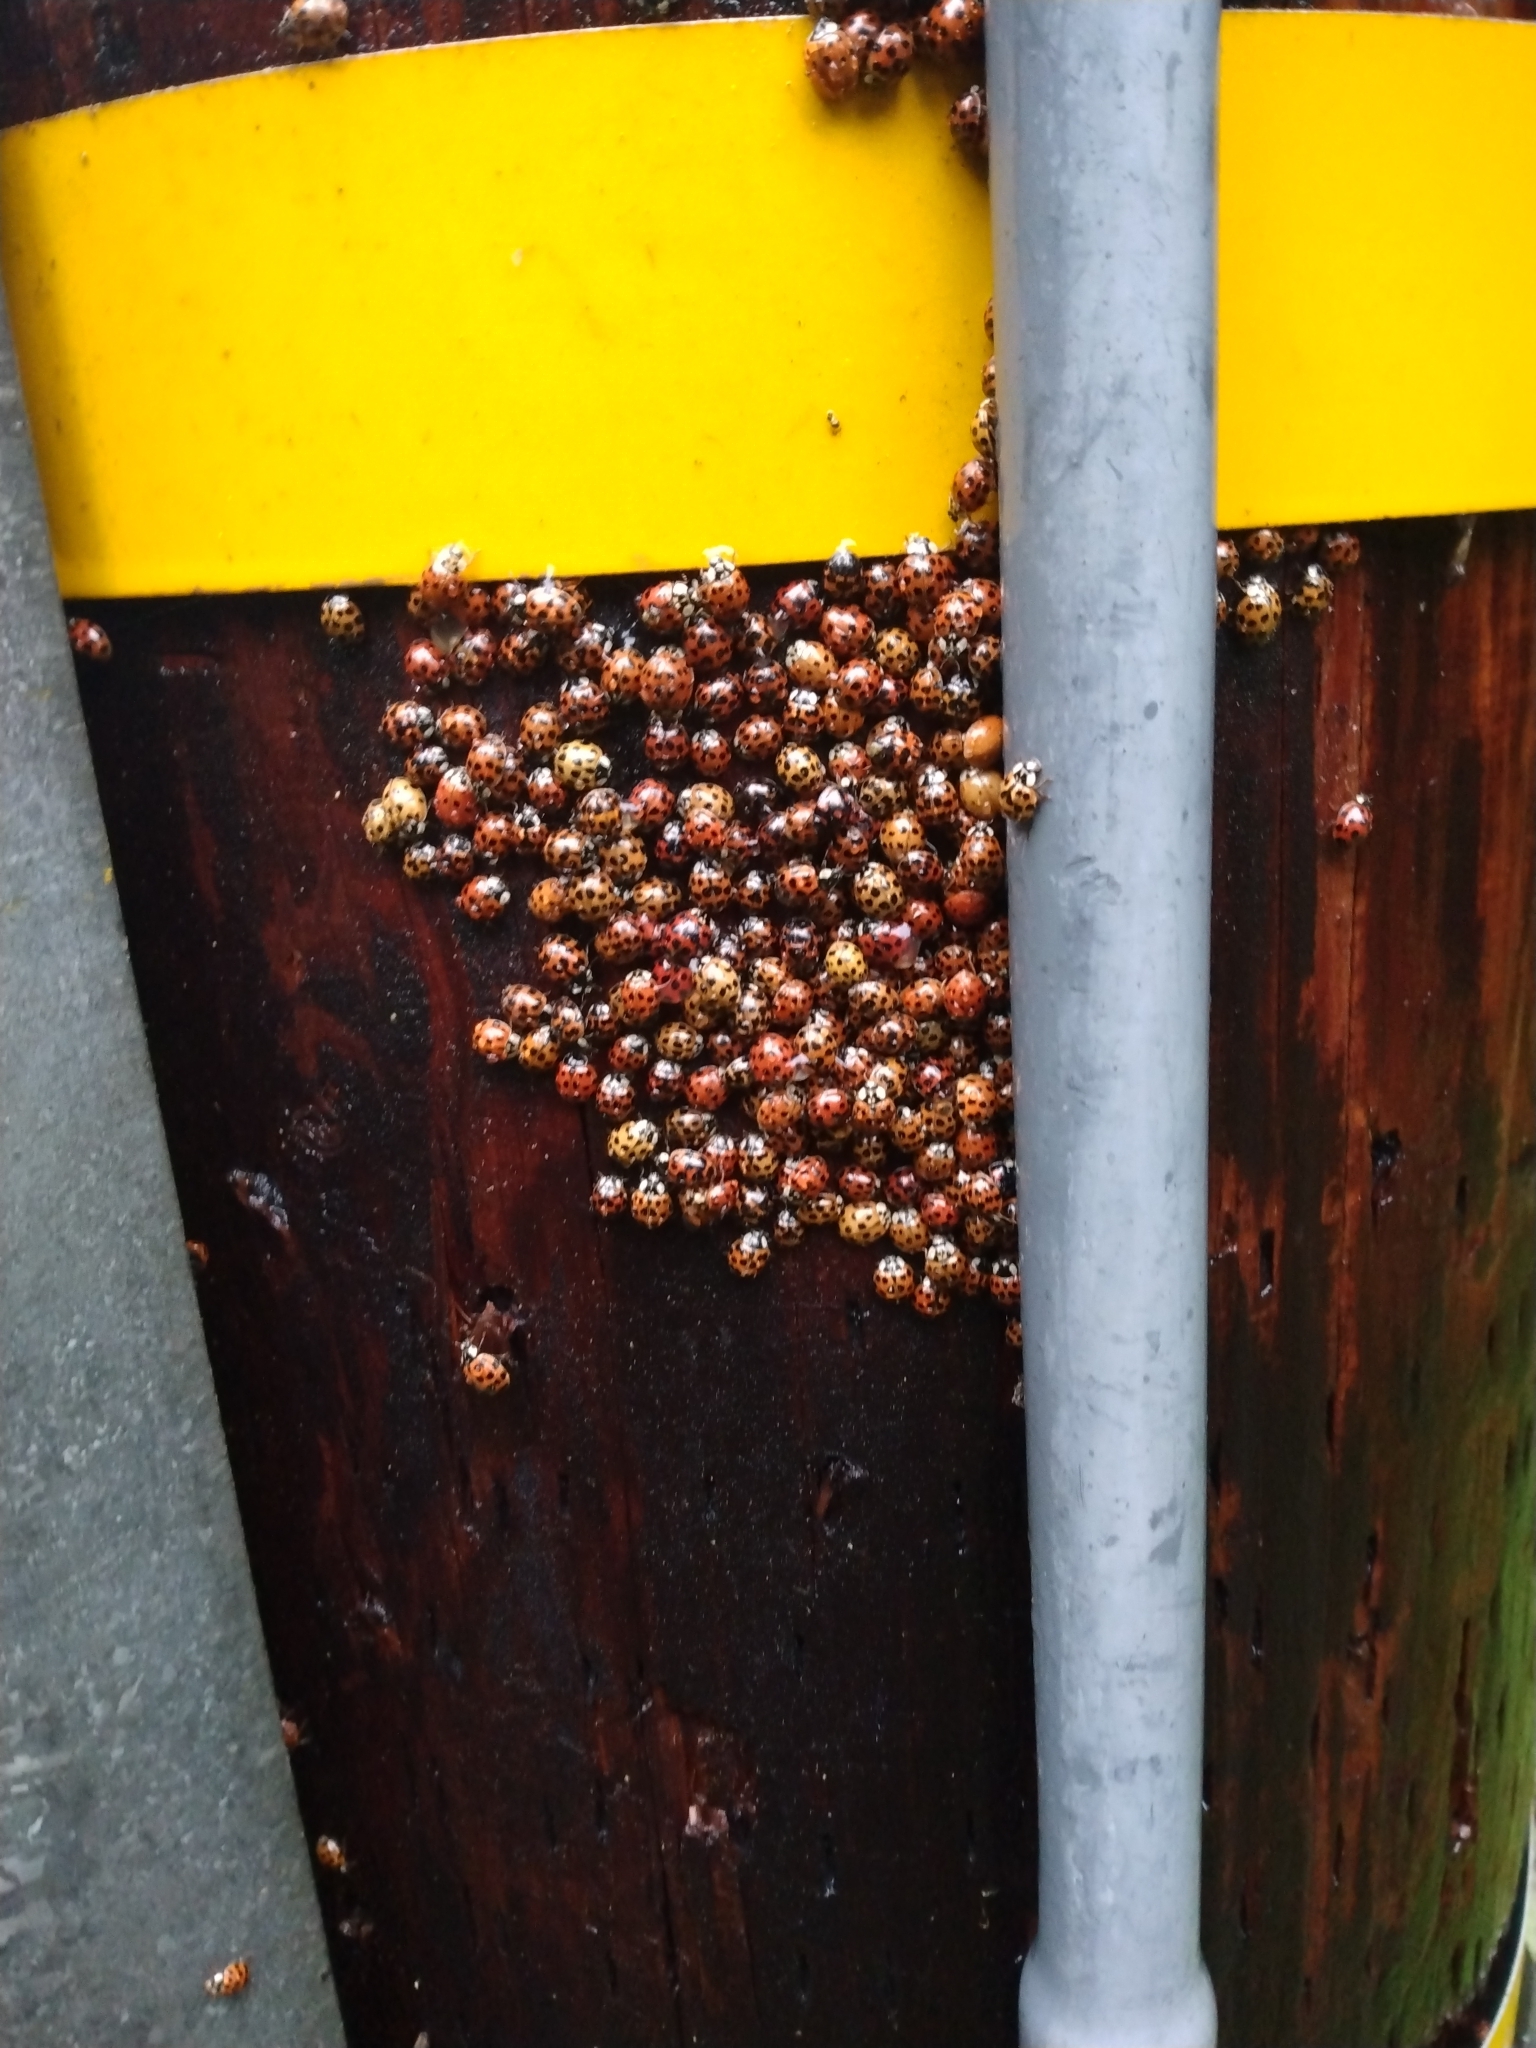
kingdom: Animalia
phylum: Arthropoda
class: Insecta
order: Coleoptera
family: Coccinellidae
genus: Harmonia
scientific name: Harmonia axyridis
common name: Harlequin ladybird
